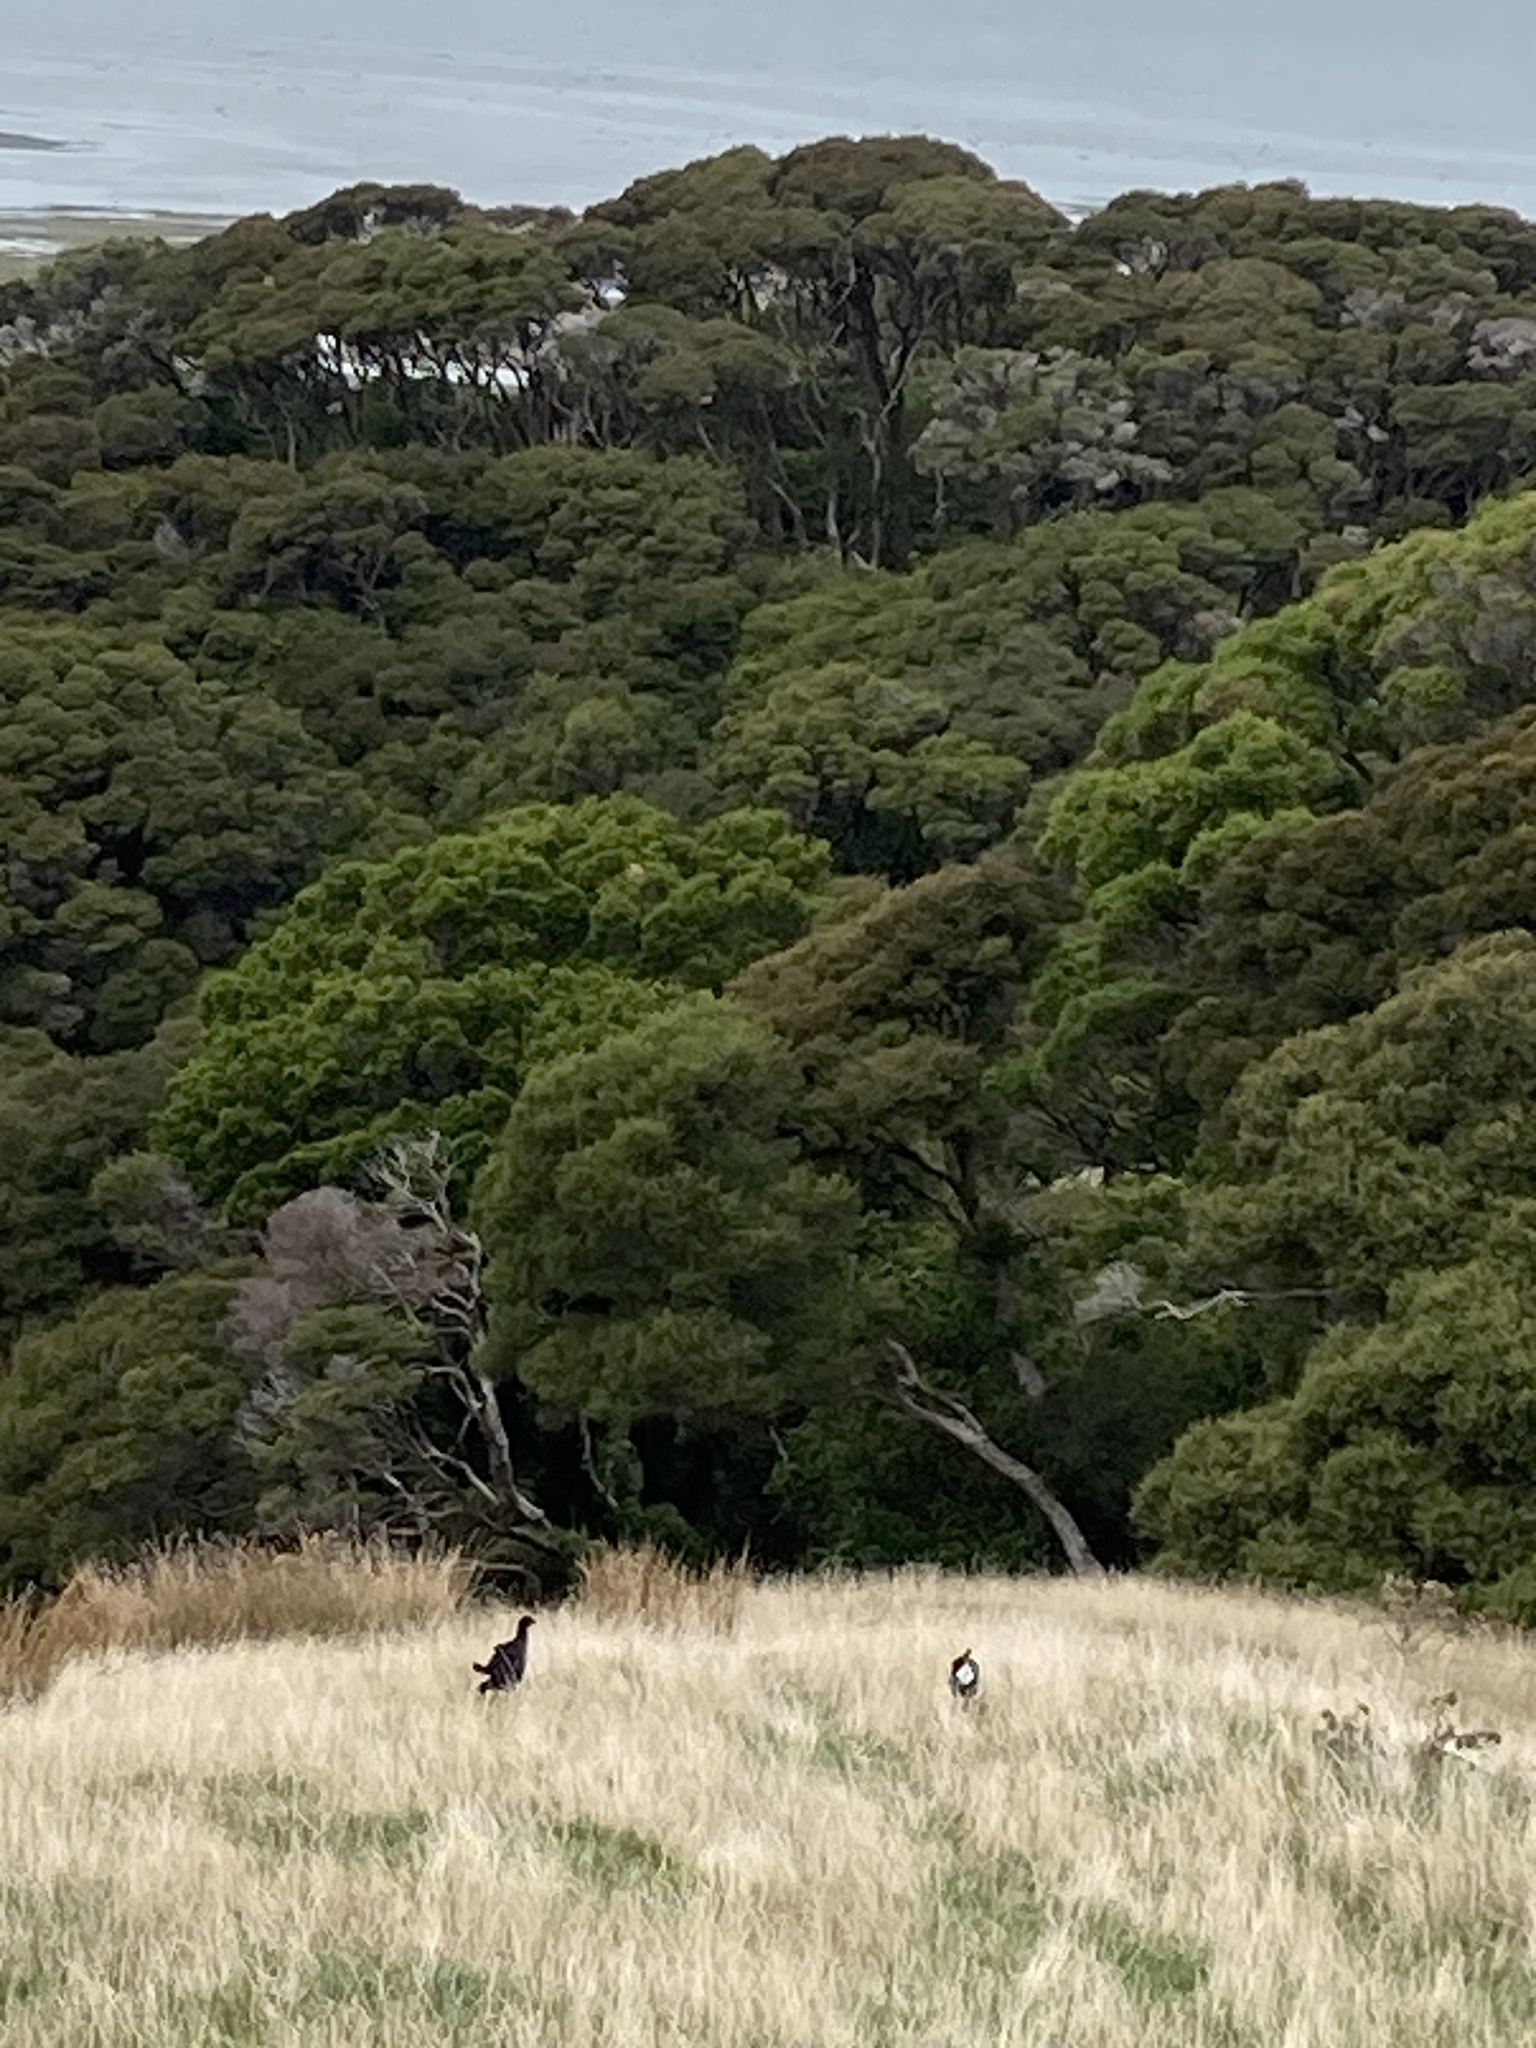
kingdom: Animalia
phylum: Chordata
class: Aves
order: Gruiformes
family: Rallidae
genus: Porphyrio
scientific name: Porphyrio melanotus
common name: Australasian swamphen
